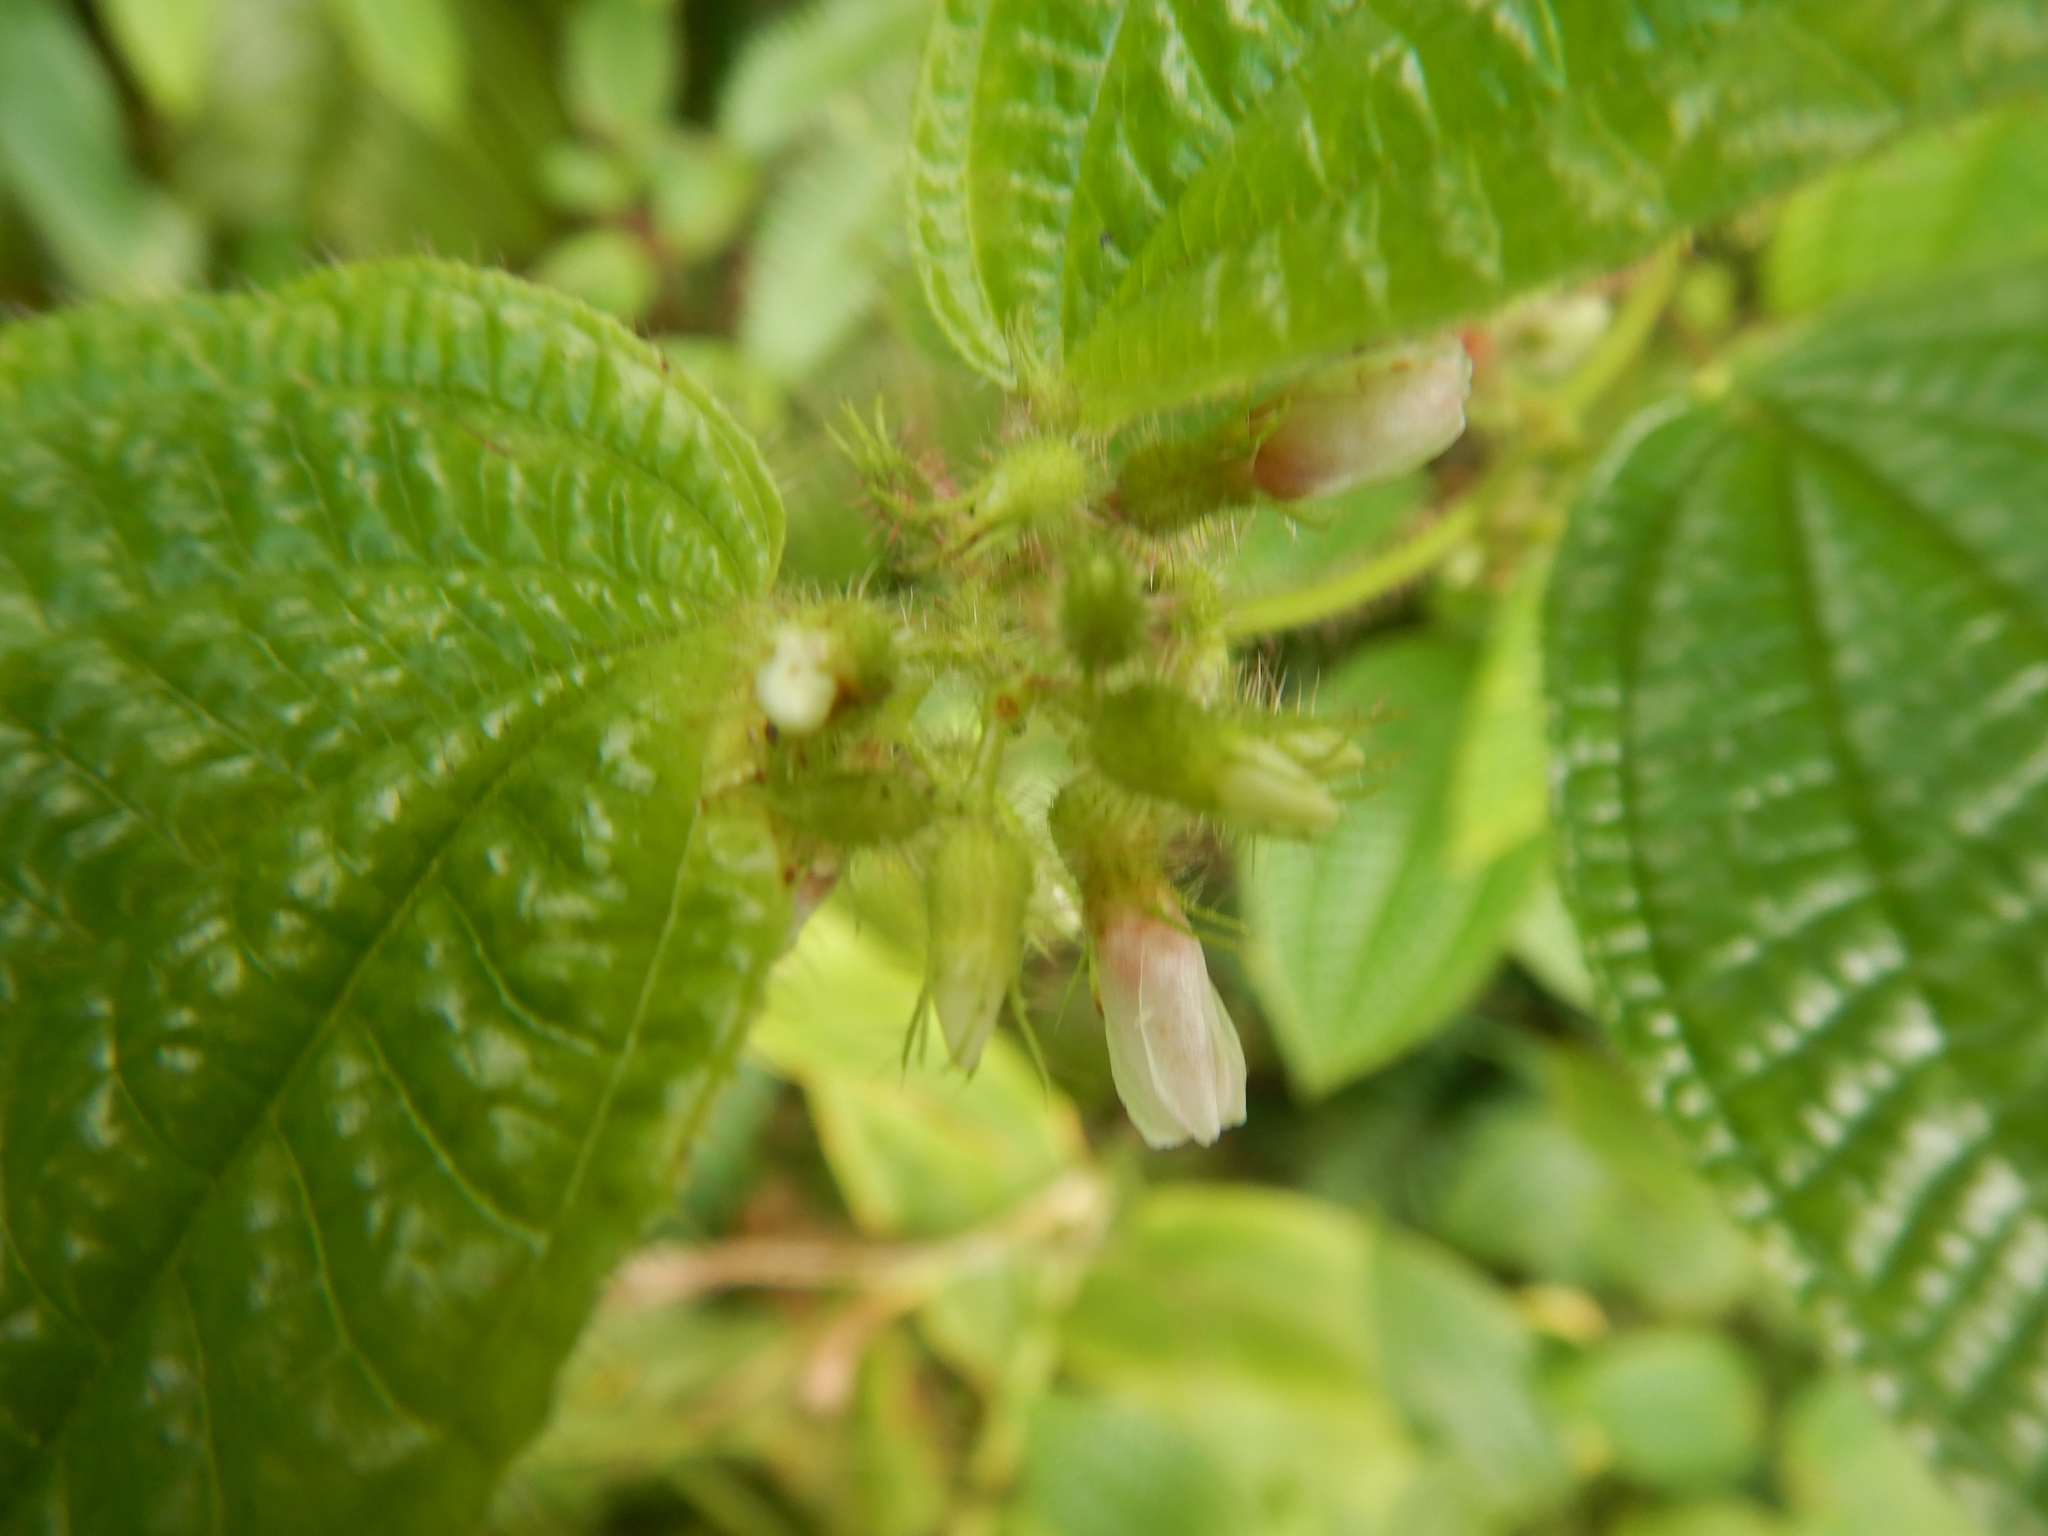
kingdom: Plantae
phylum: Tracheophyta
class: Magnoliopsida
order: Myrtales
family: Melastomataceae
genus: Miconia
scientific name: Miconia crenata
